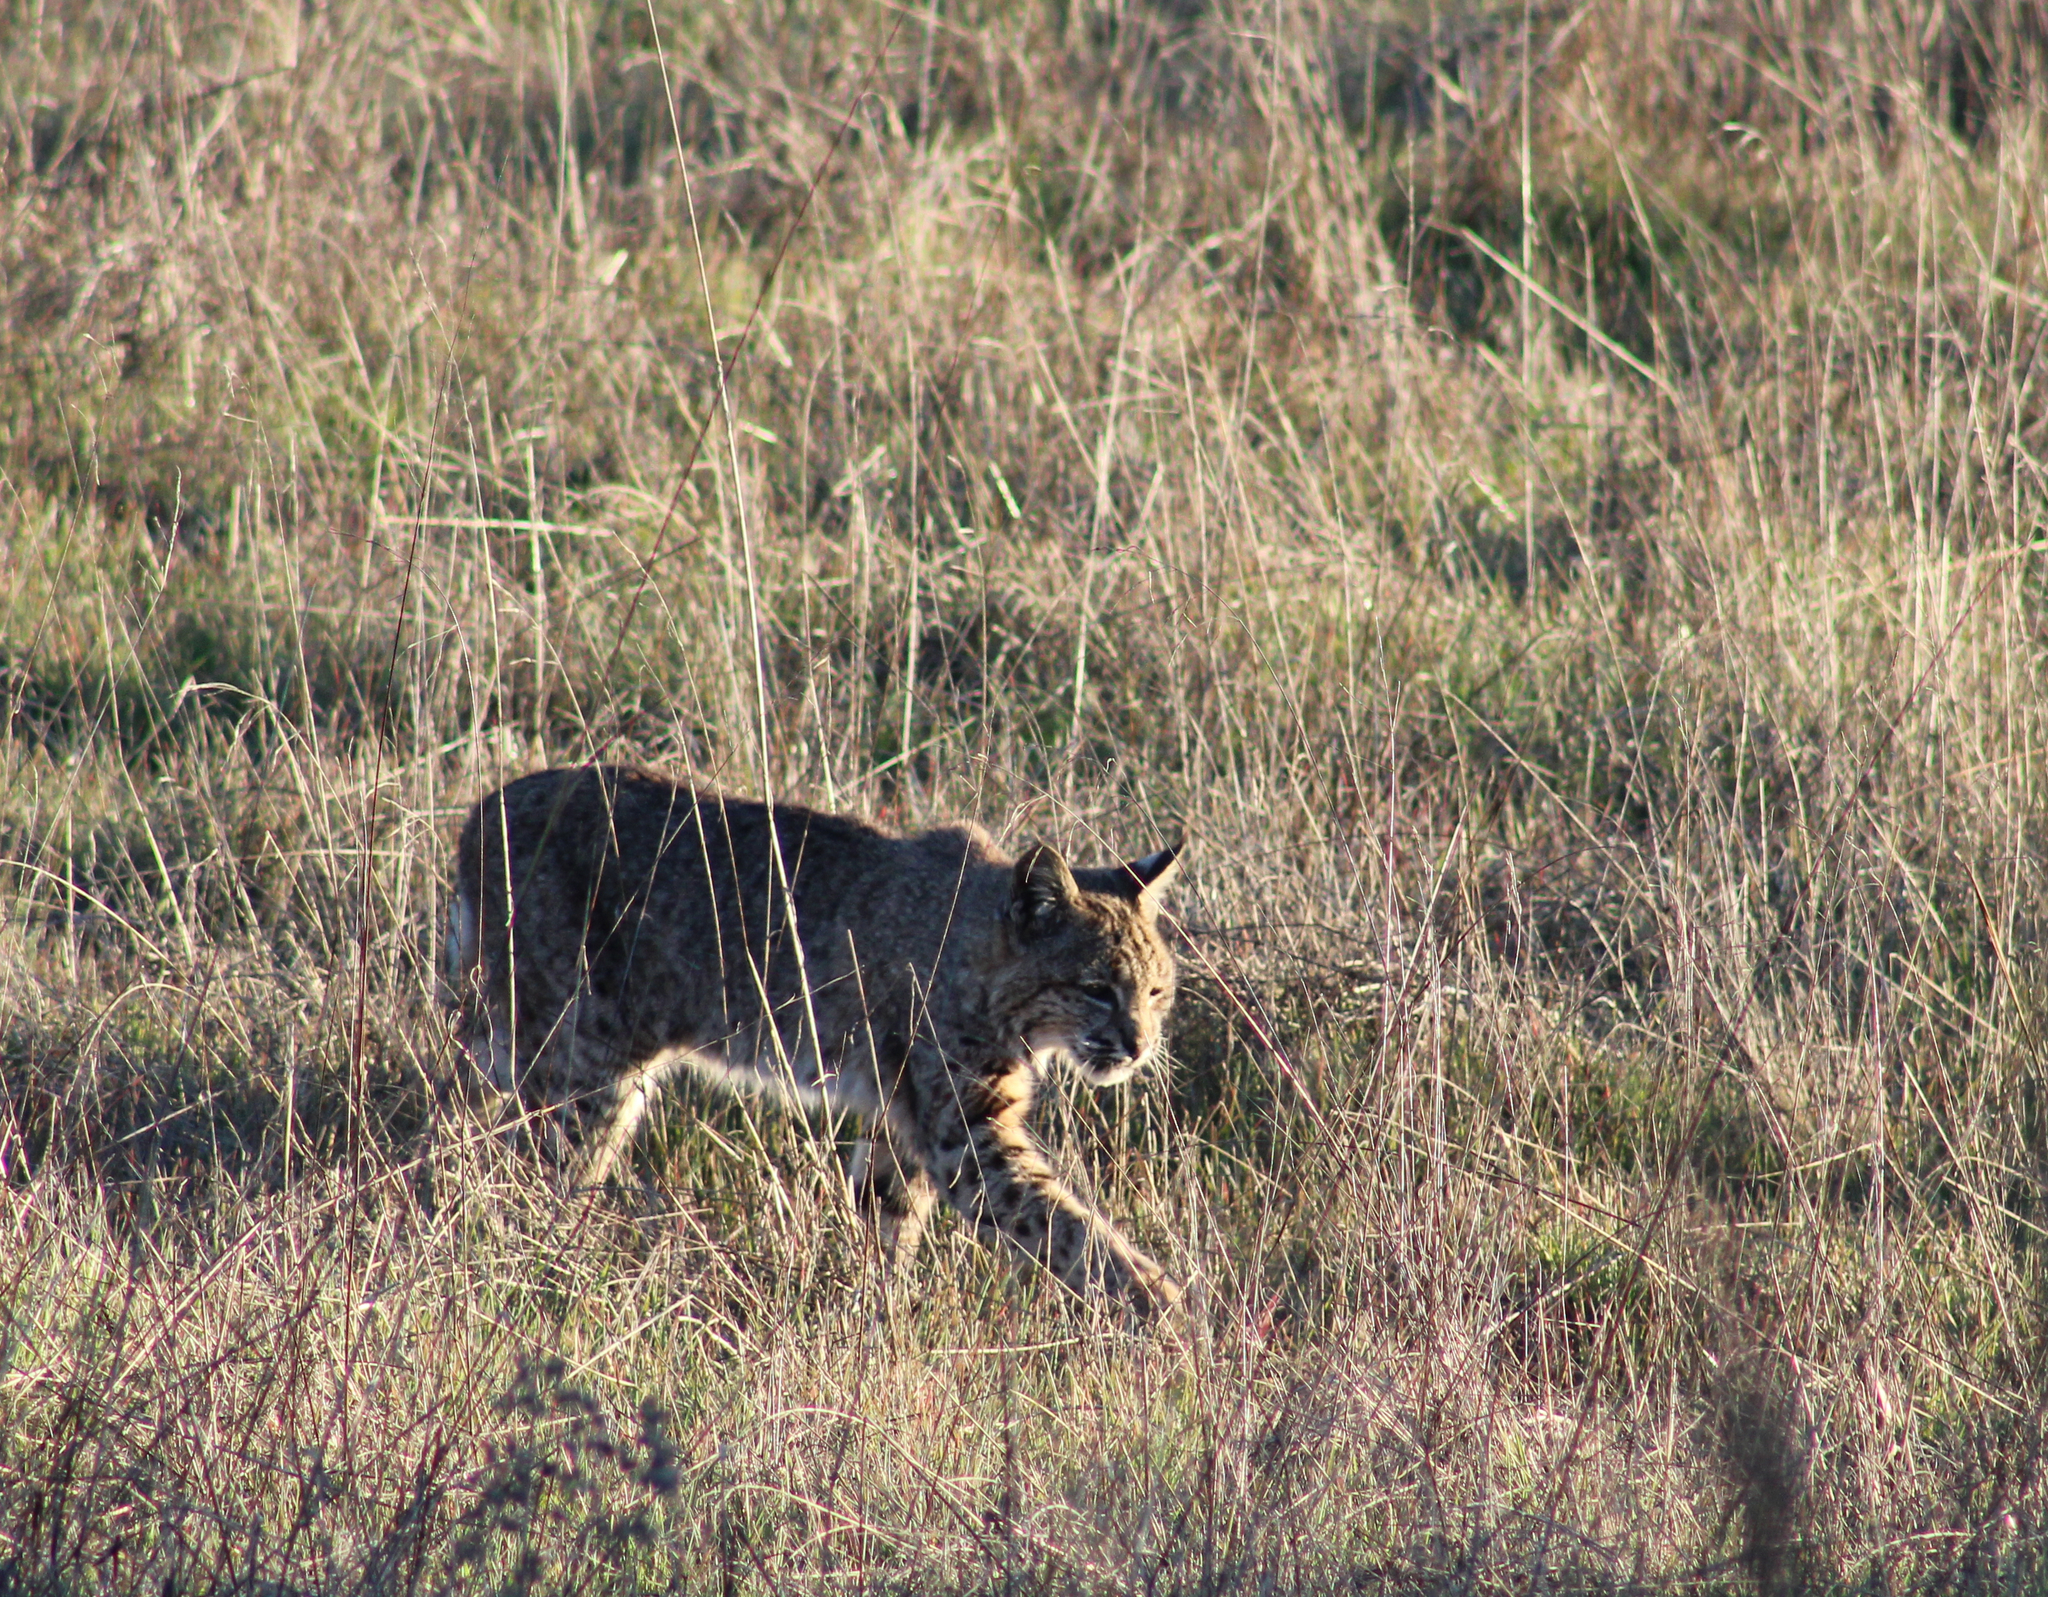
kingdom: Animalia
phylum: Chordata
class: Mammalia
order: Carnivora
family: Felidae
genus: Lynx
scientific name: Lynx rufus
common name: Bobcat
